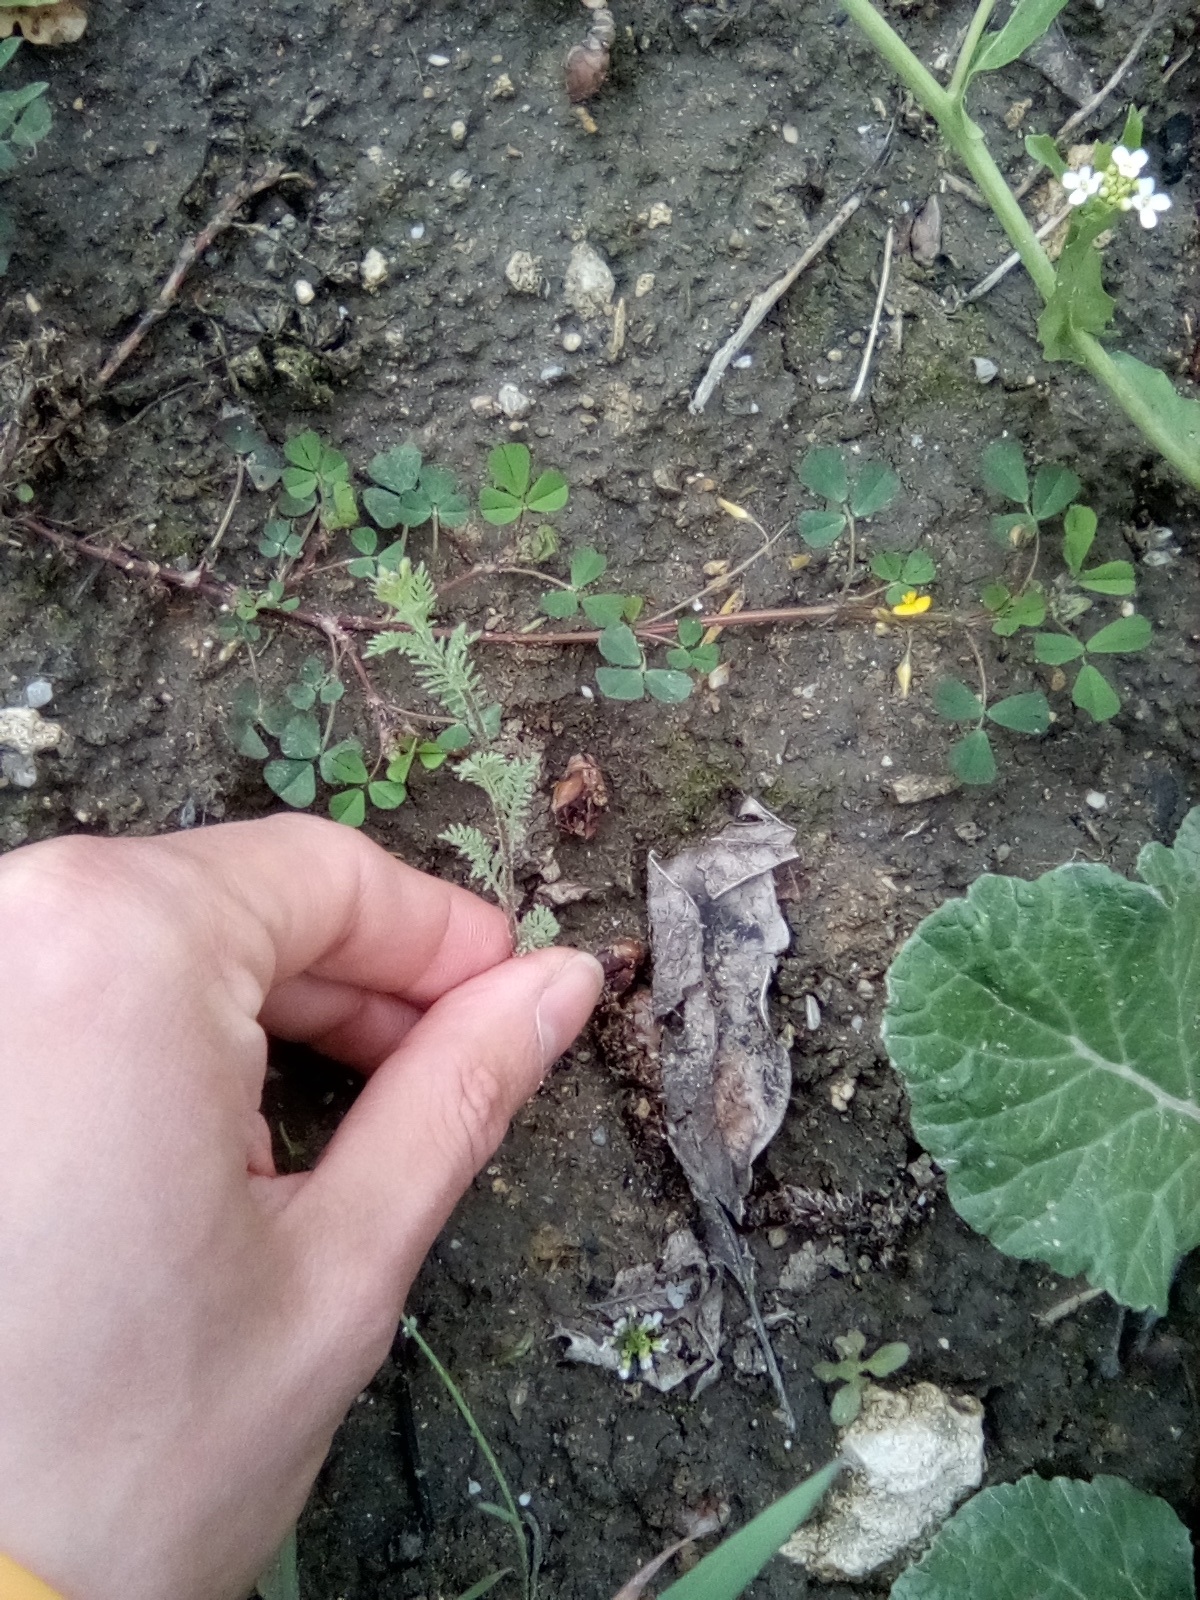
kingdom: Plantae
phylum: Tracheophyta
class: Magnoliopsida
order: Brassicales
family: Brassicaceae
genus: Descurainia
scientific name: Descurainia sophia
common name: Flixweed
